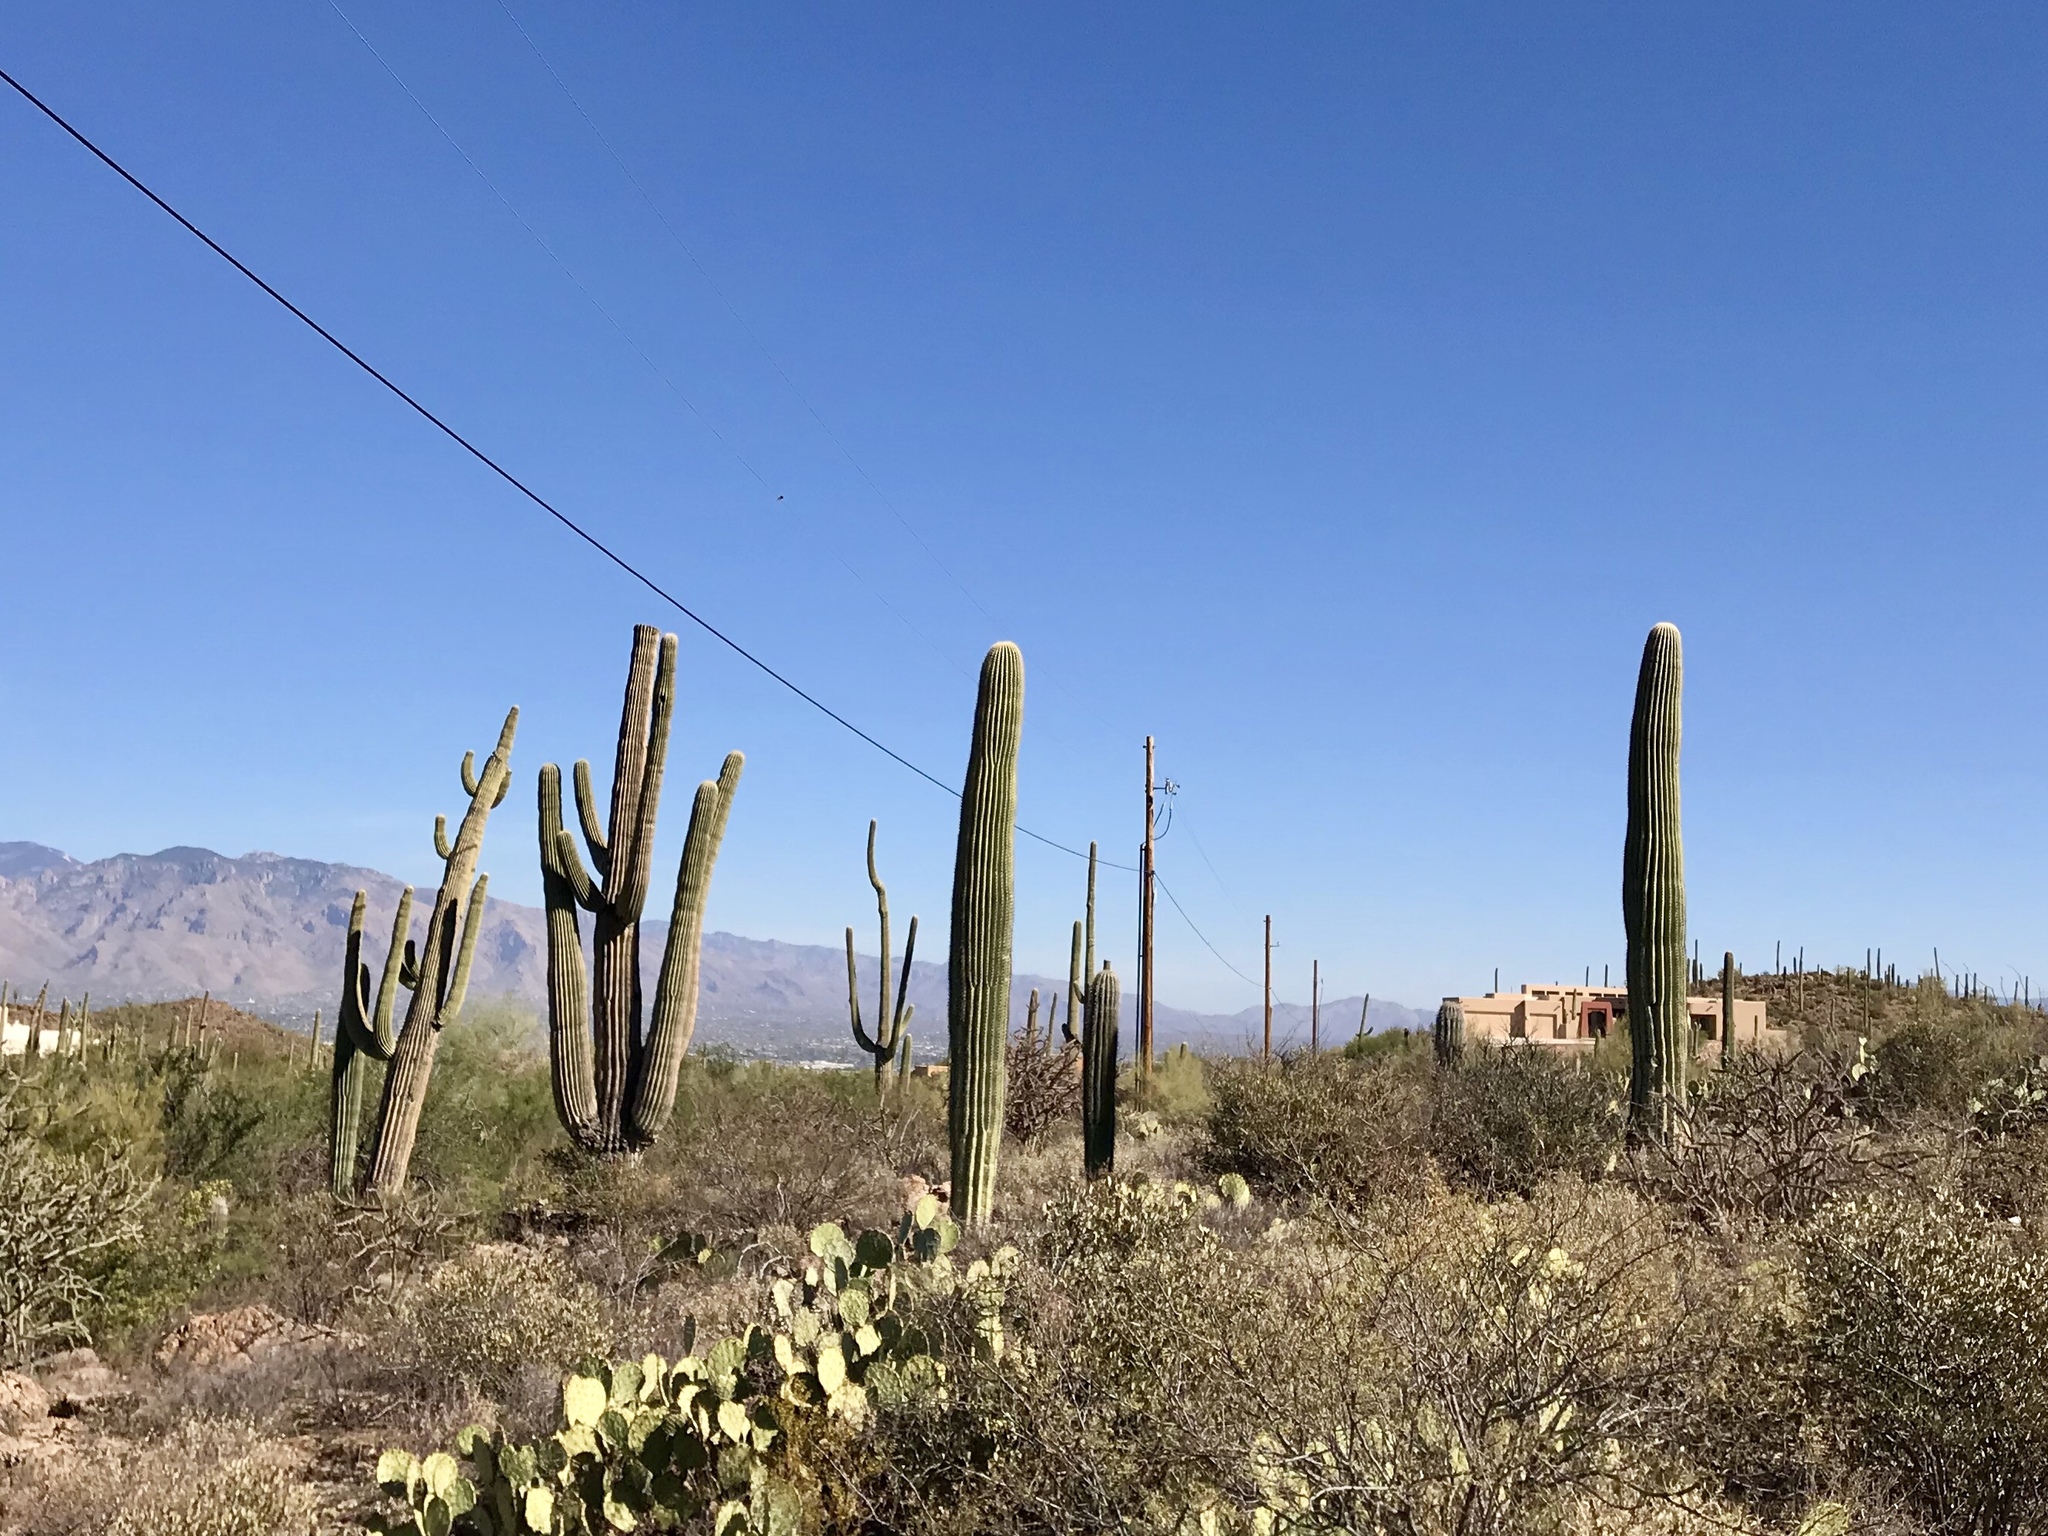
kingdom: Plantae
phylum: Tracheophyta
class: Magnoliopsida
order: Caryophyllales
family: Cactaceae
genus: Carnegiea
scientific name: Carnegiea gigantea
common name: Saguaro
